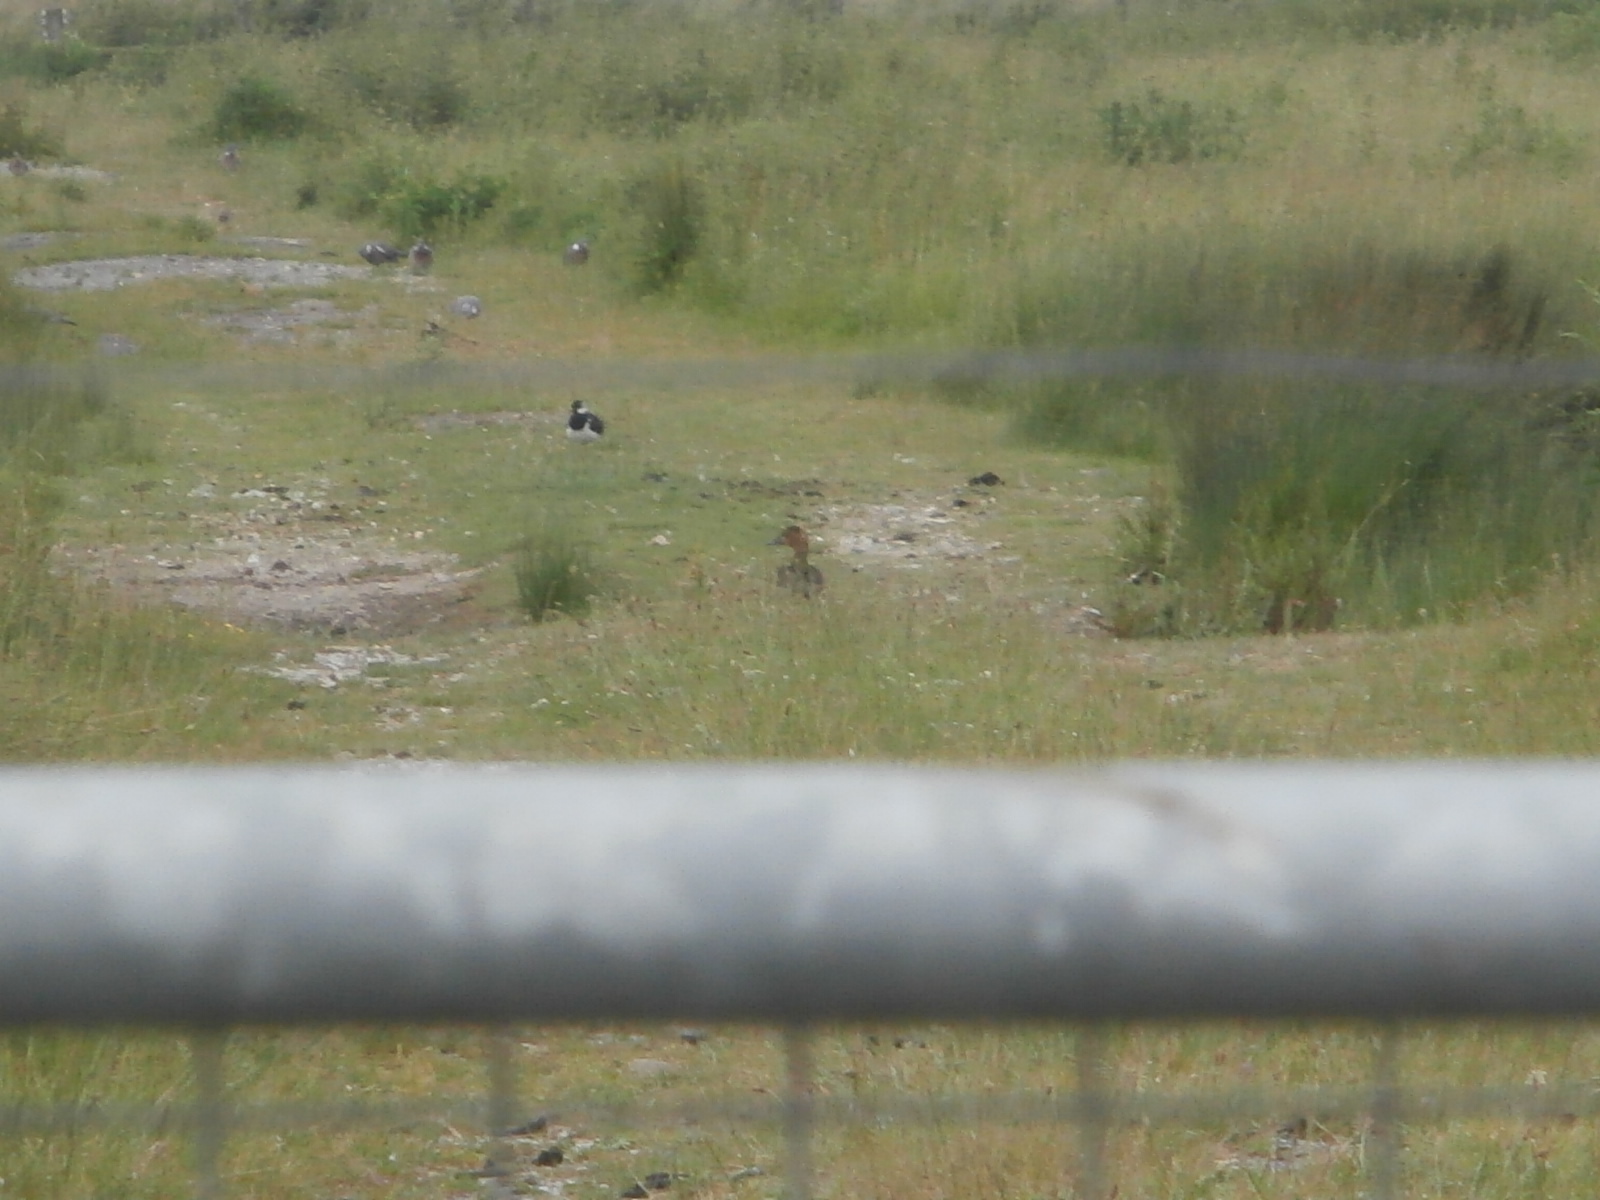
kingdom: Animalia
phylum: Chordata
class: Aves
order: Anseriformes
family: Anatidae
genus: Aythya
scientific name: Aythya ferina
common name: Common pochard
